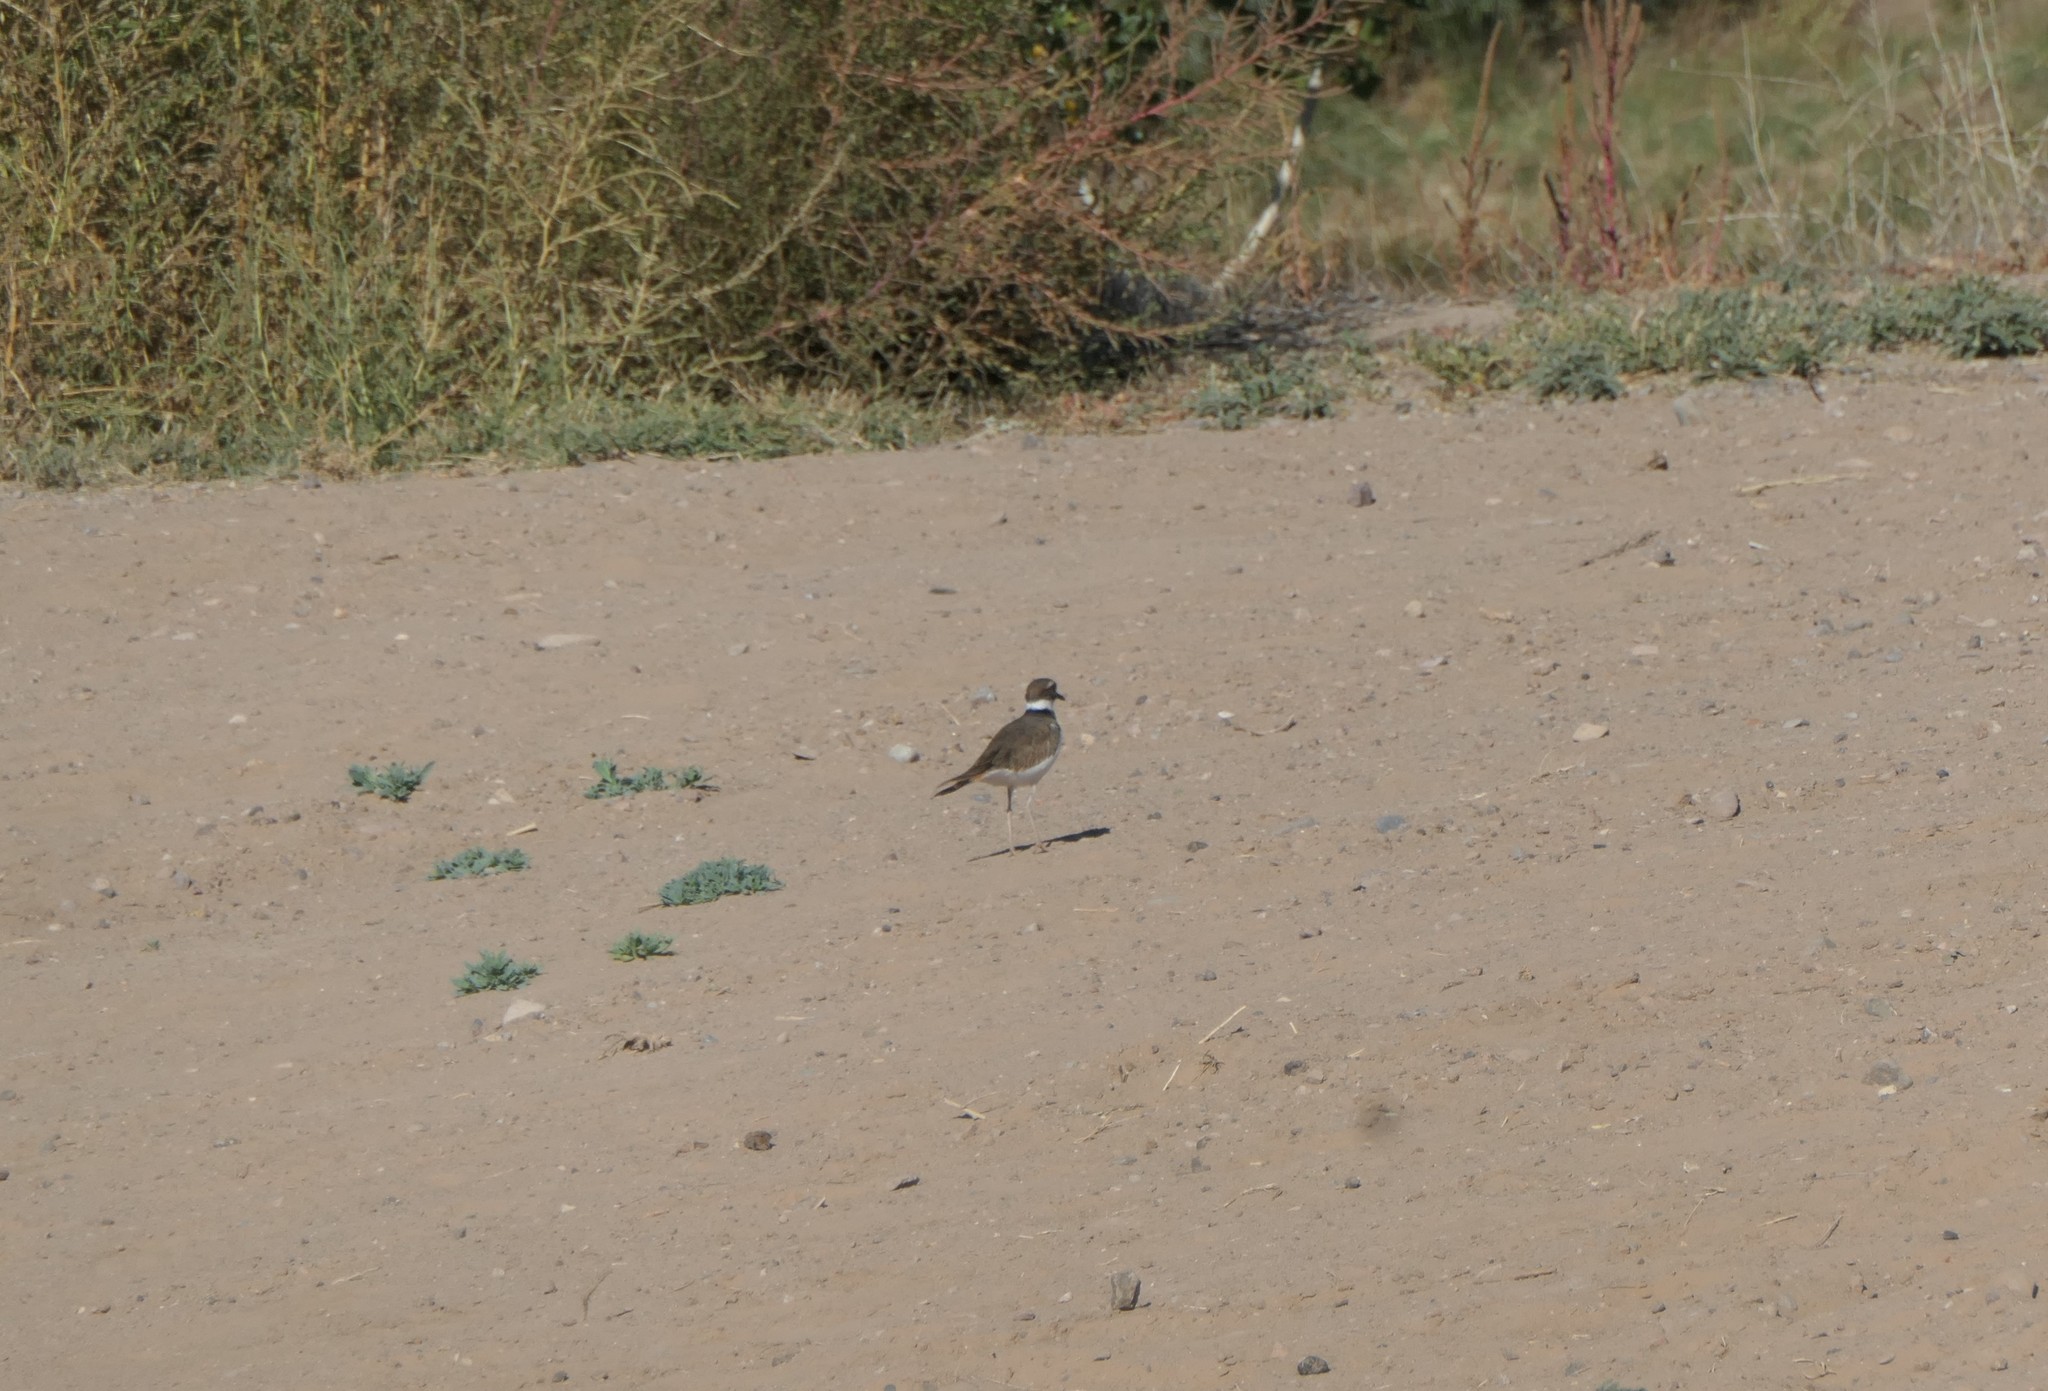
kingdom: Animalia
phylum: Chordata
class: Aves
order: Charadriiformes
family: Charadriidae
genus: Charadrius
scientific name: Charadrius vociferus
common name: Killdeer
